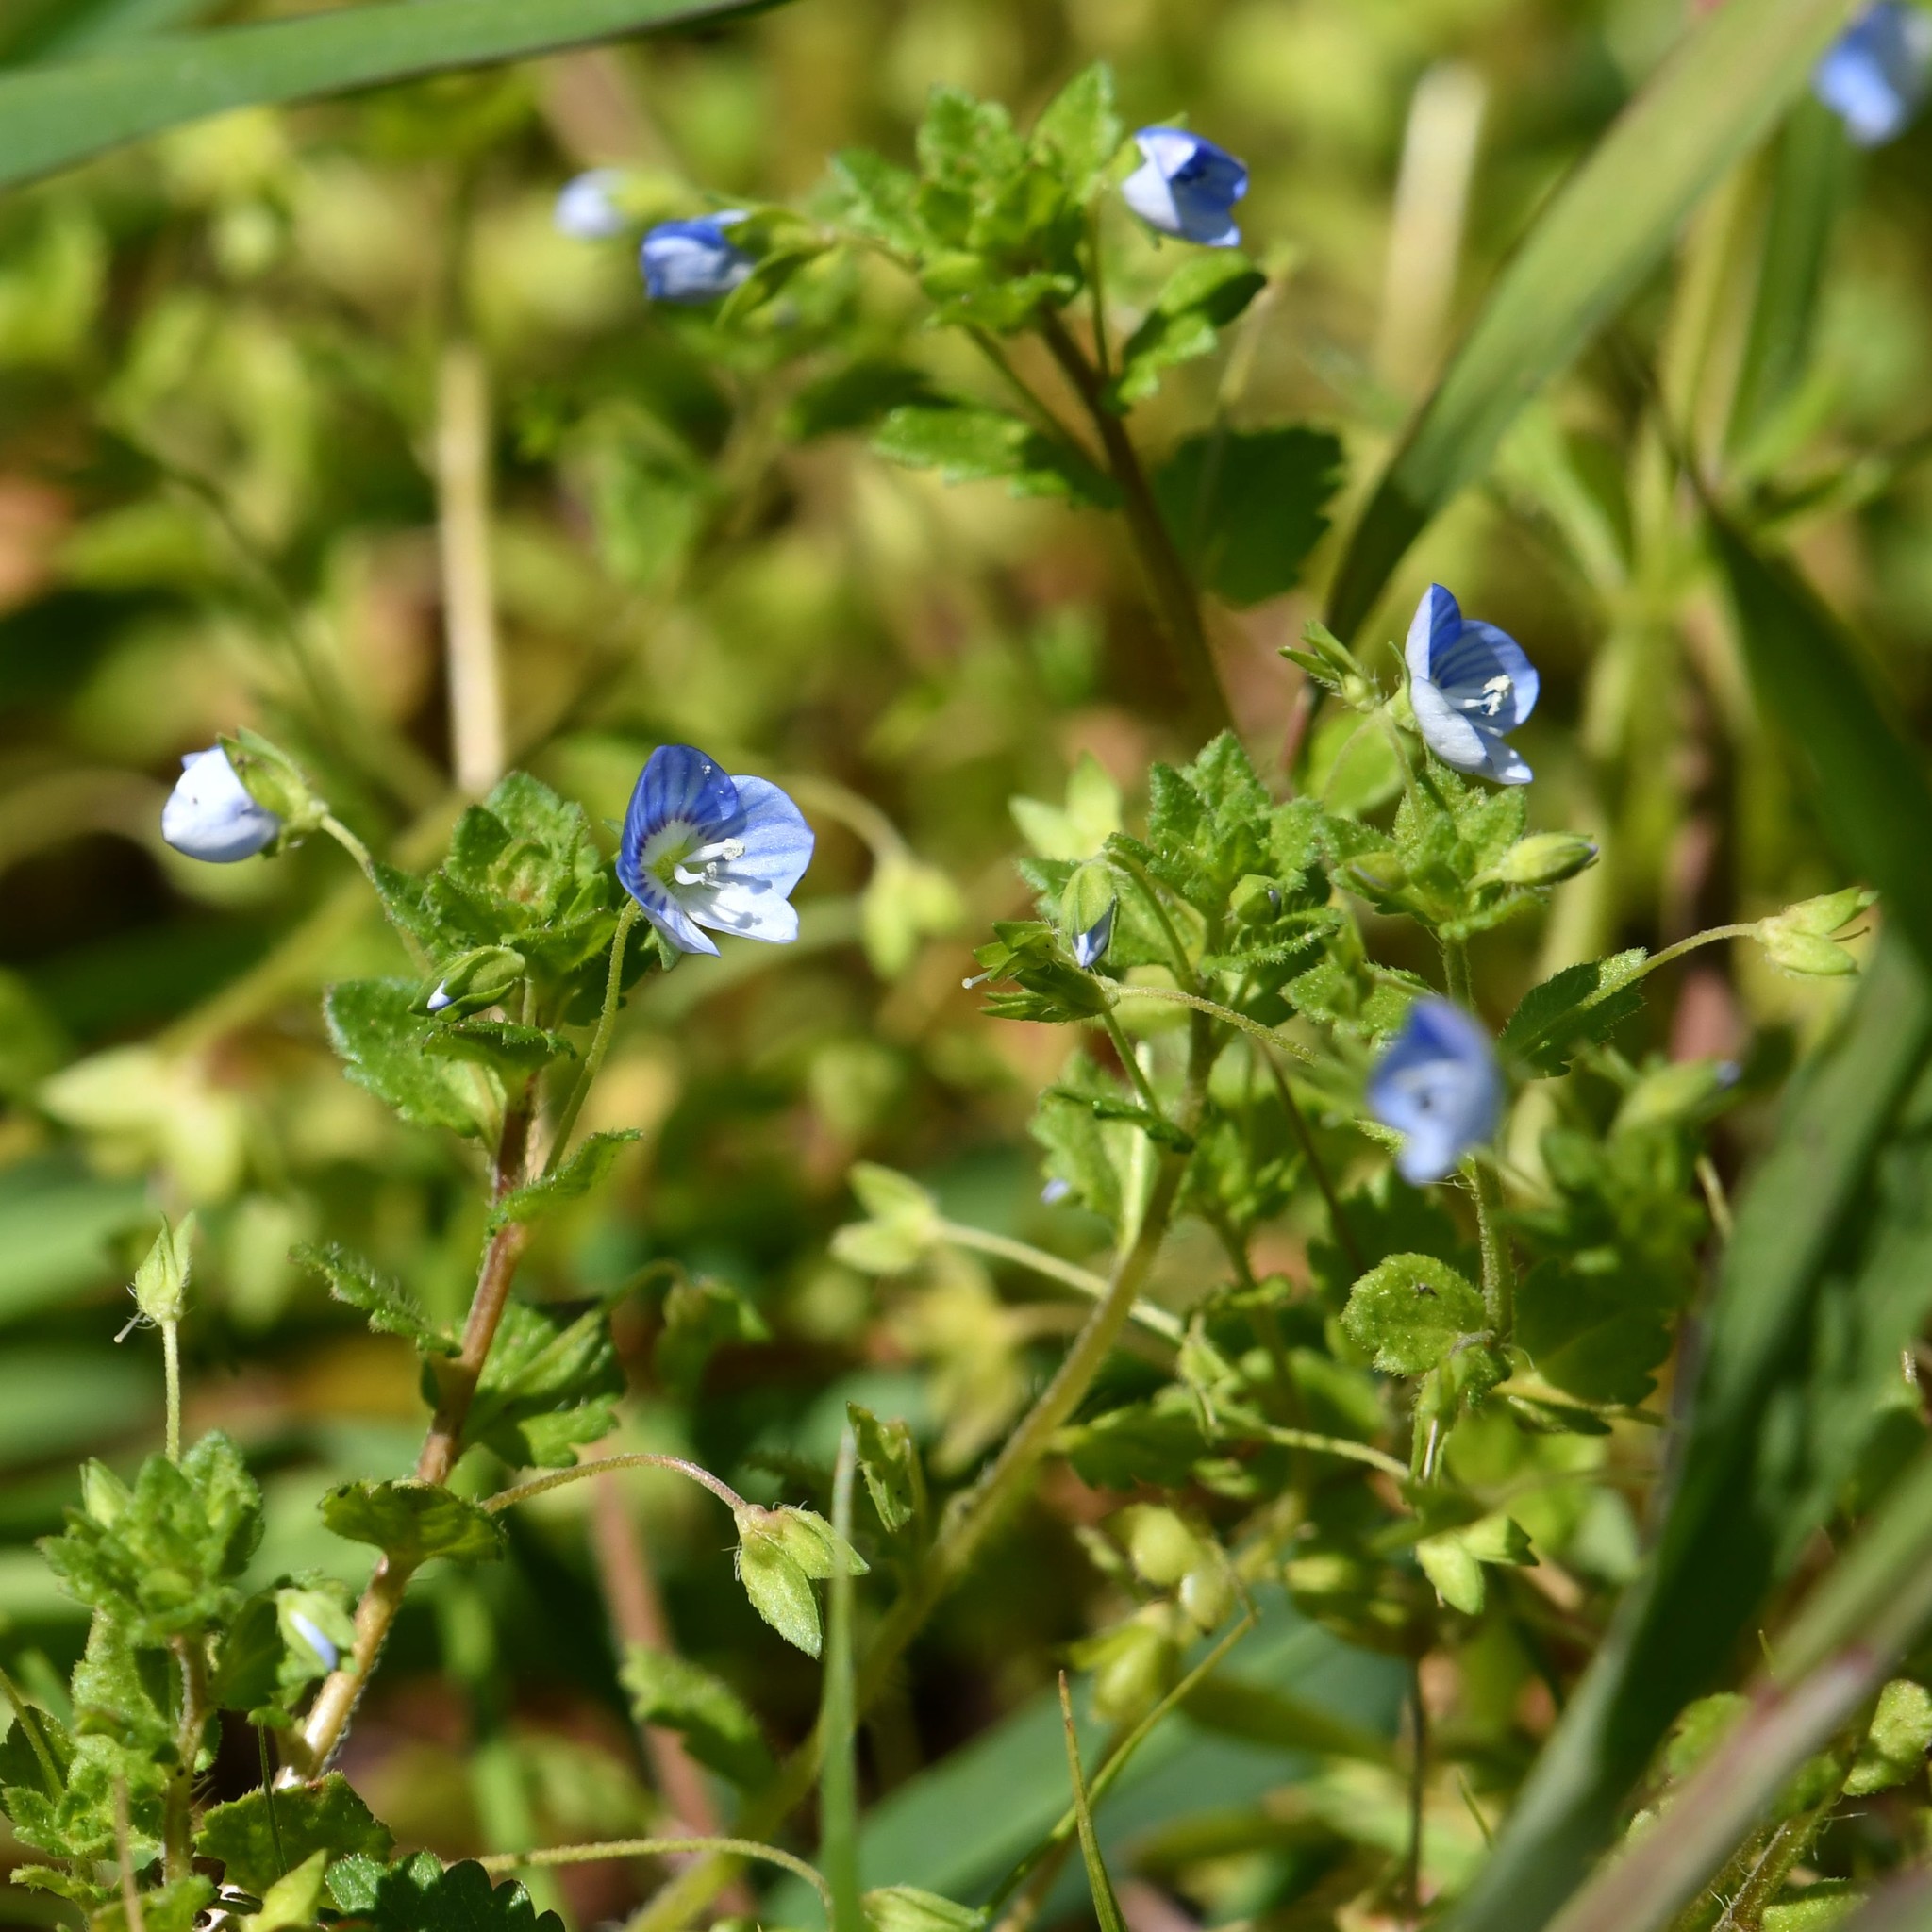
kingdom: Plantae
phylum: Tracheophyta
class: Magnoliopsida
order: Lamiales
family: Plantaginaceae
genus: Veronica
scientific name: Veronica persica
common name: Common field-speedwell
